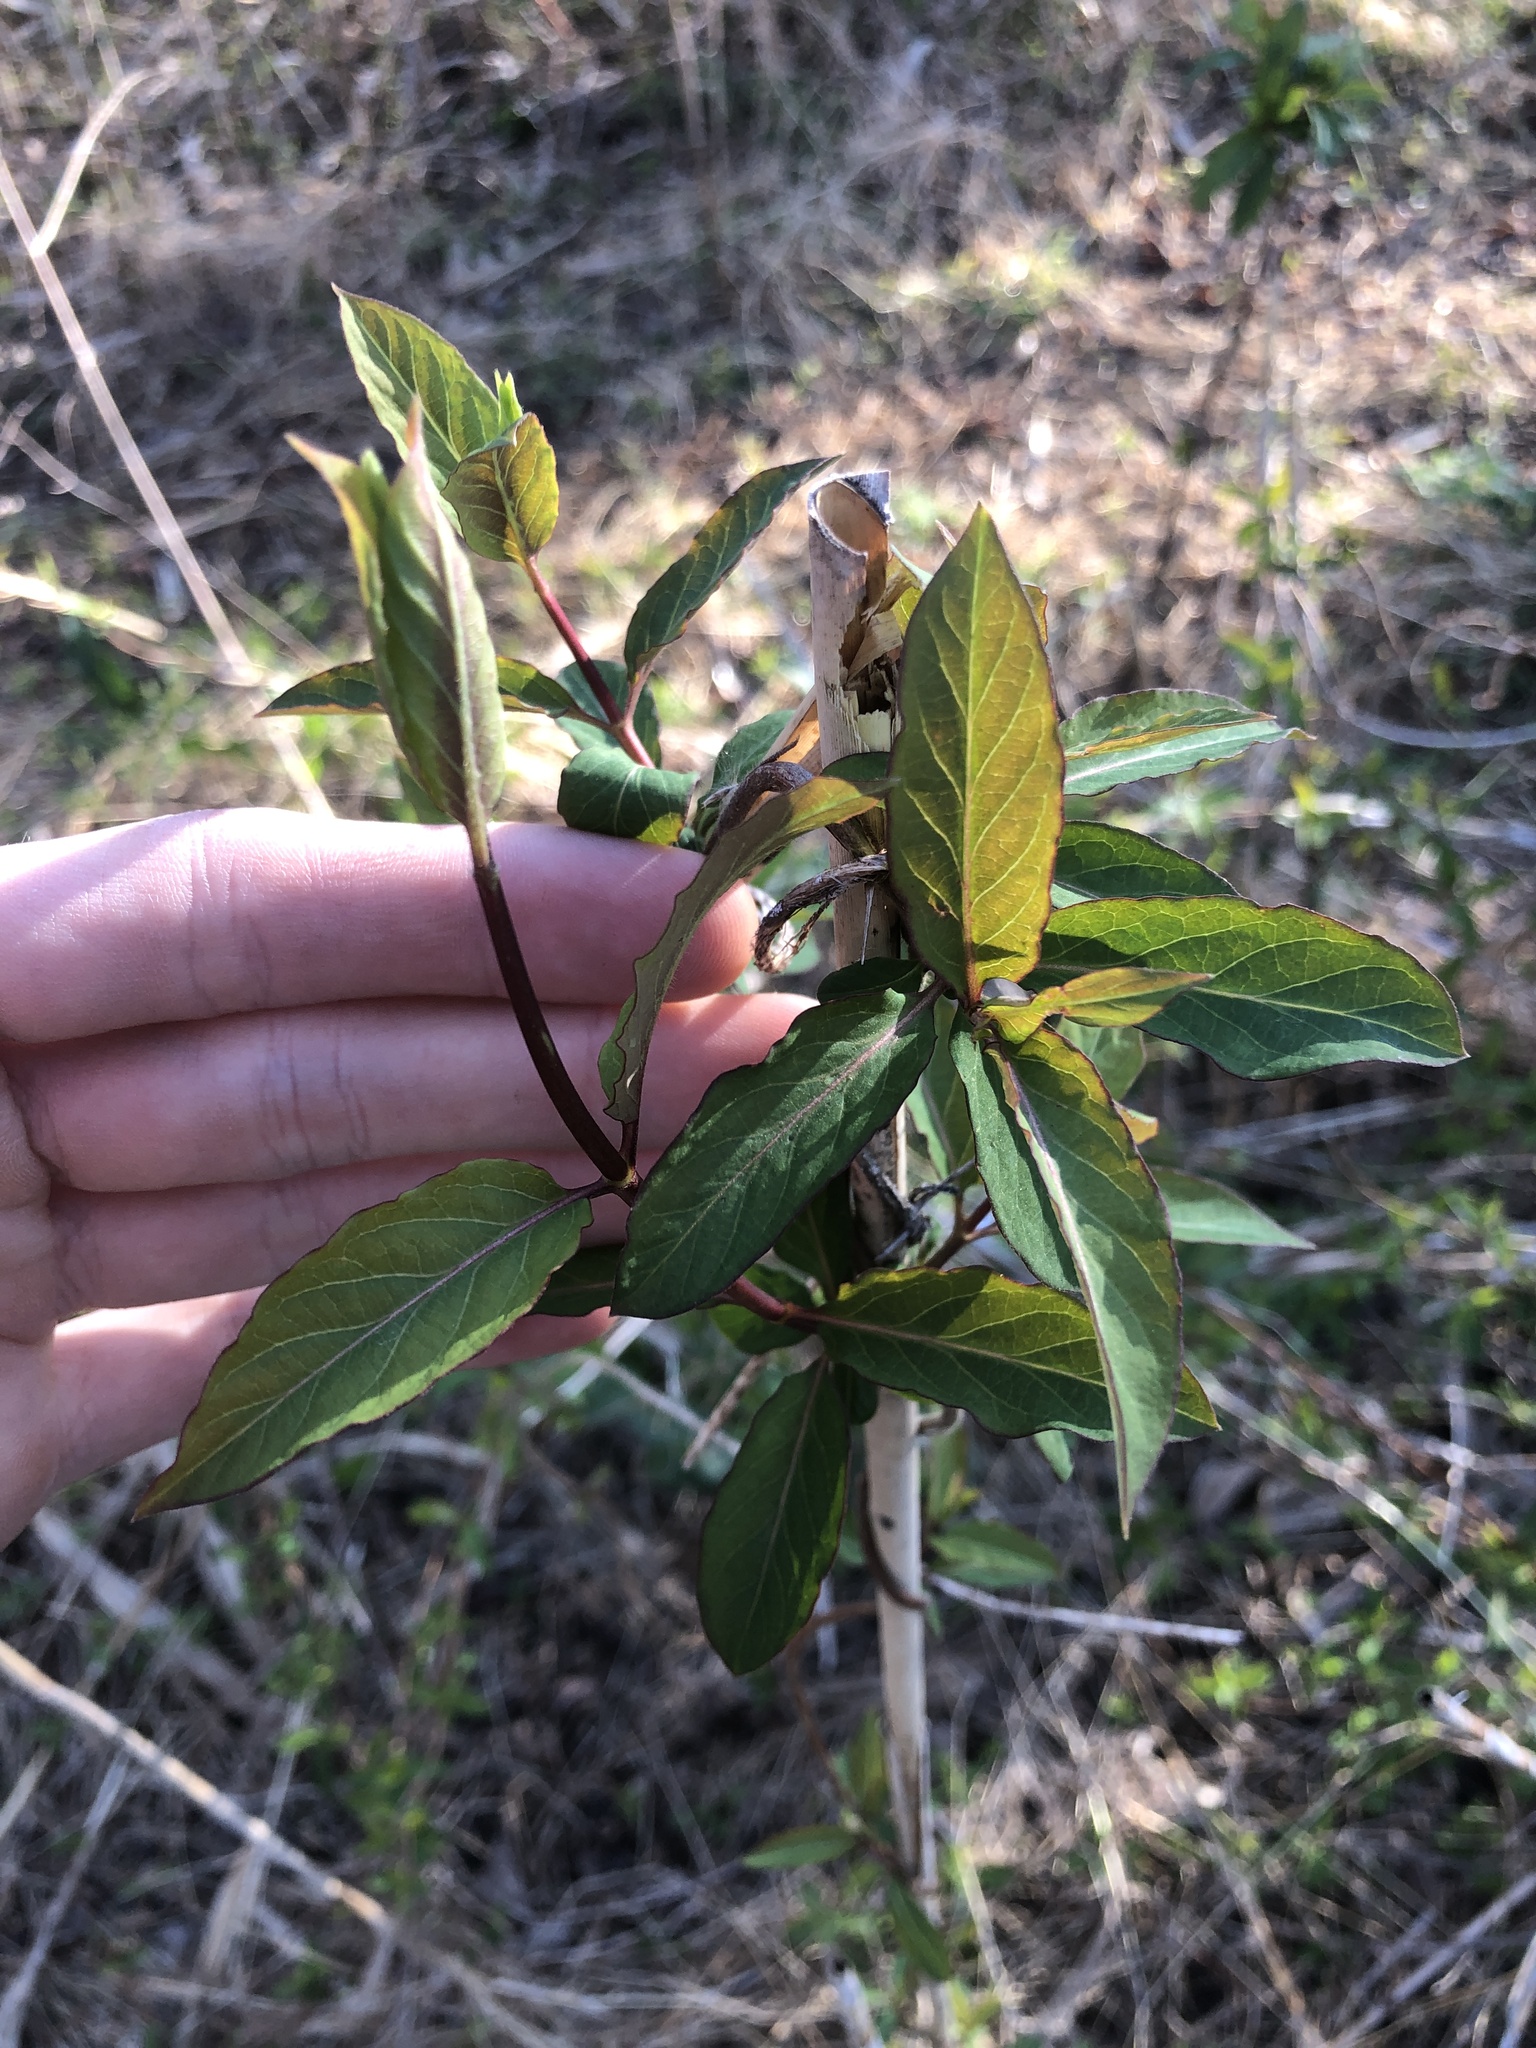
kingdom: Plantae
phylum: Tracheophyta
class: Magnoliopsida
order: Dipsacales
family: Caprifoliaceae
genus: Lonicera
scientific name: Lonicera japonica
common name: Japanese honeysuckle
